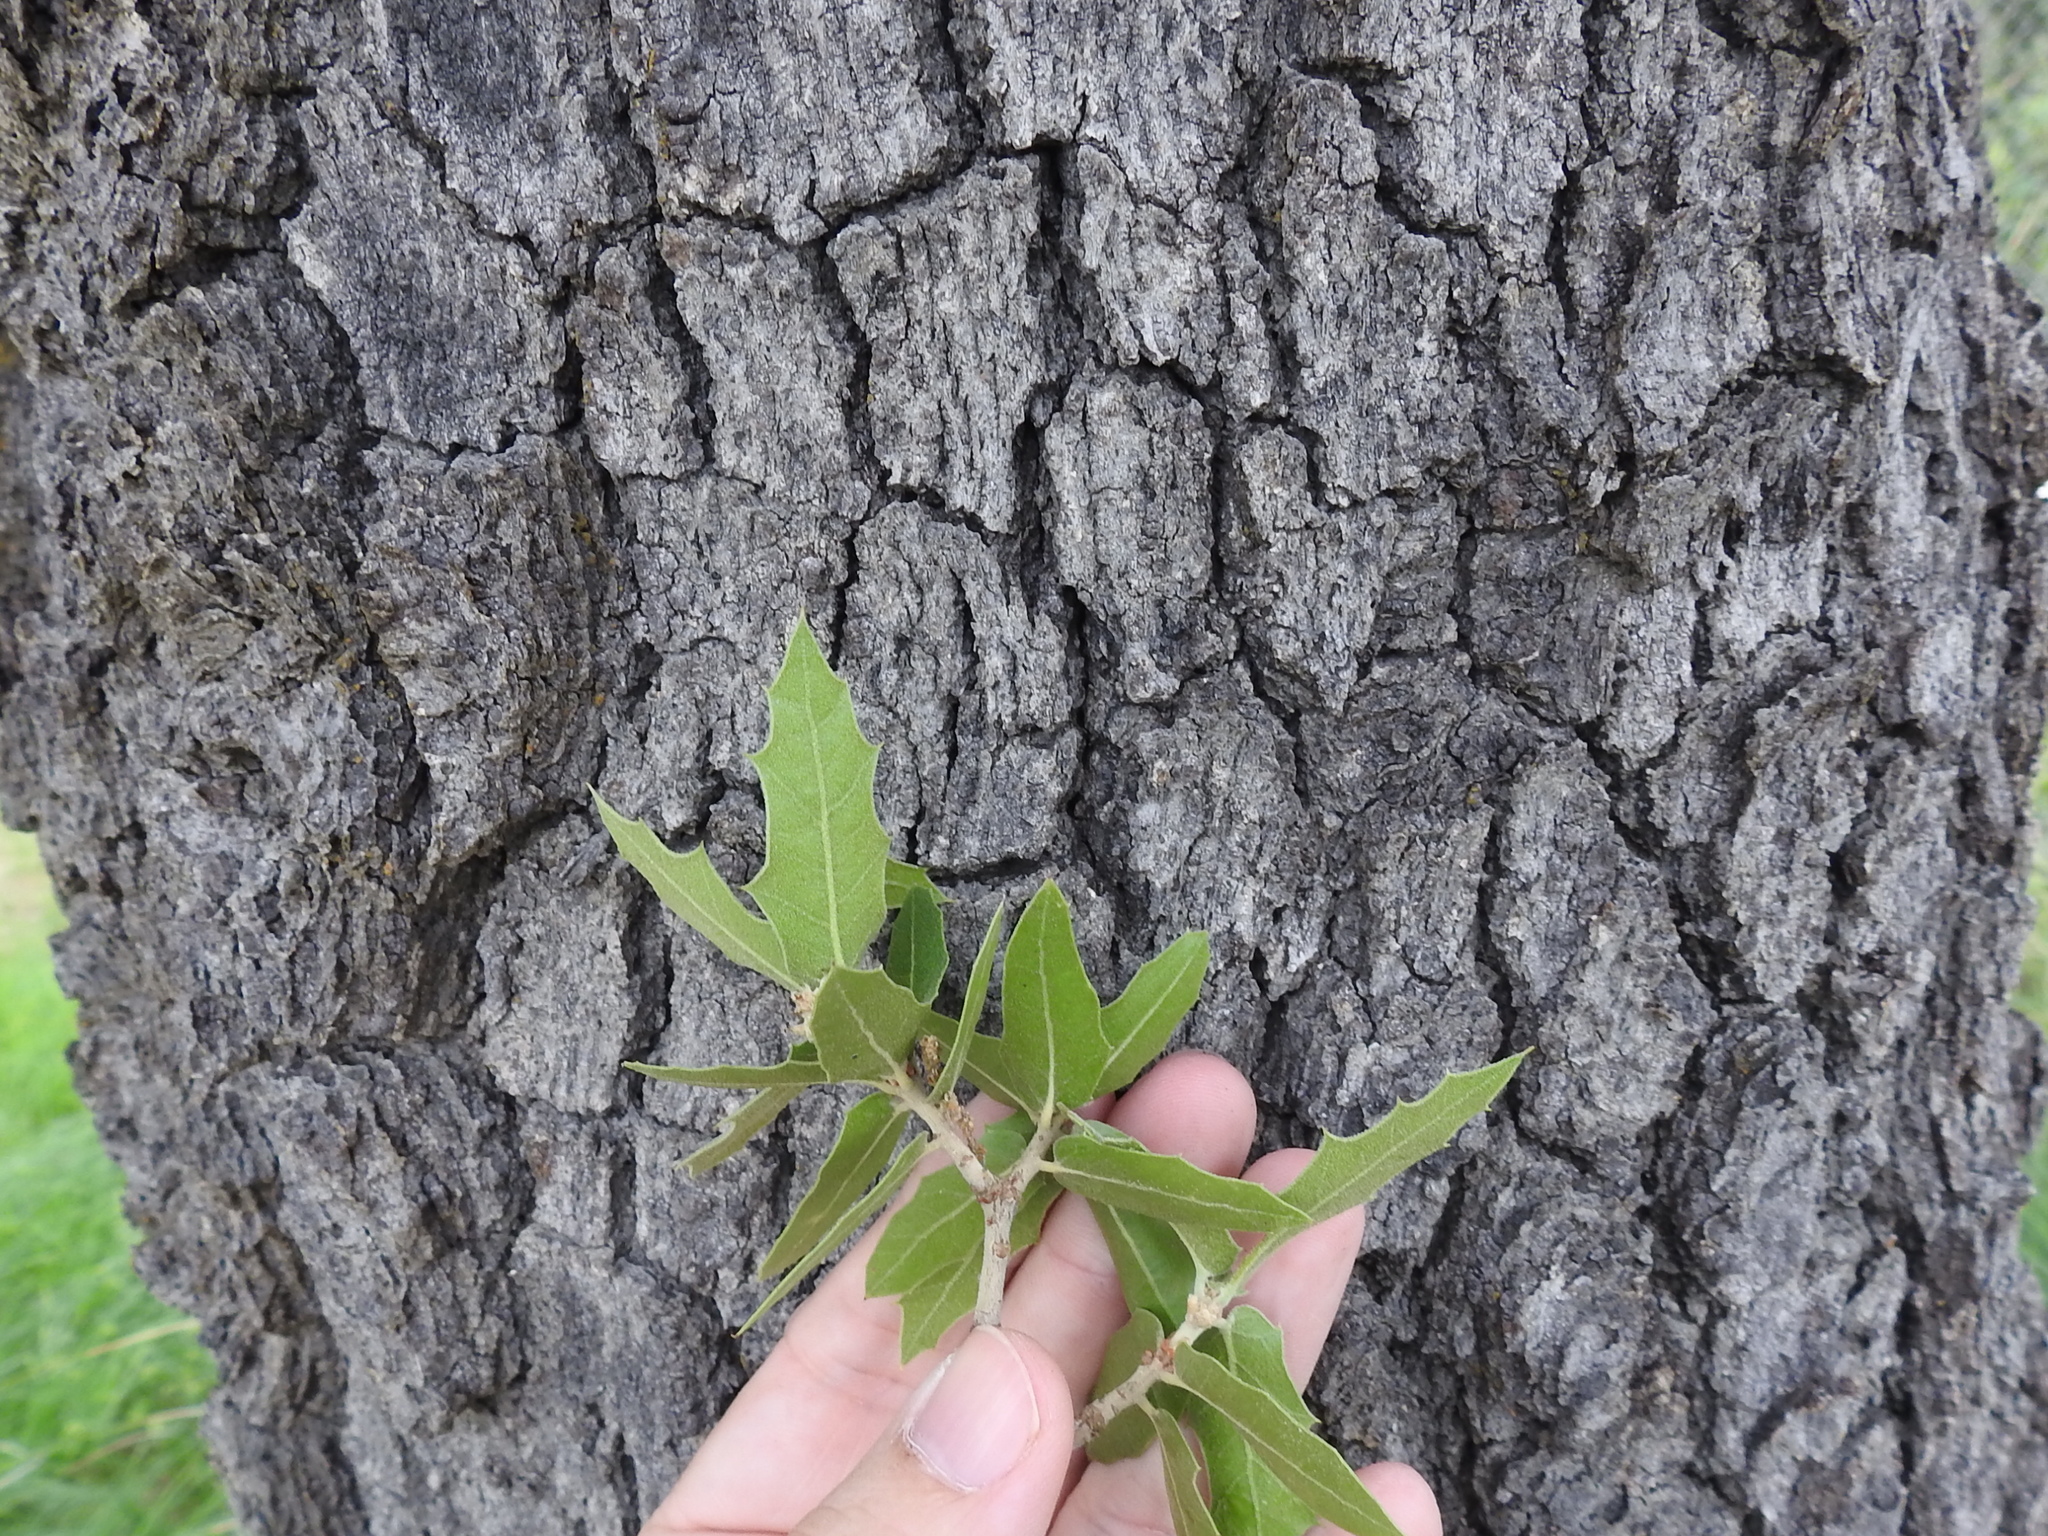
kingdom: Plantae
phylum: Tracheophyta
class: Magnoliopsida
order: Fagales
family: Fagaceae
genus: Quercus
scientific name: Quercus emoryi
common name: Emory oak
